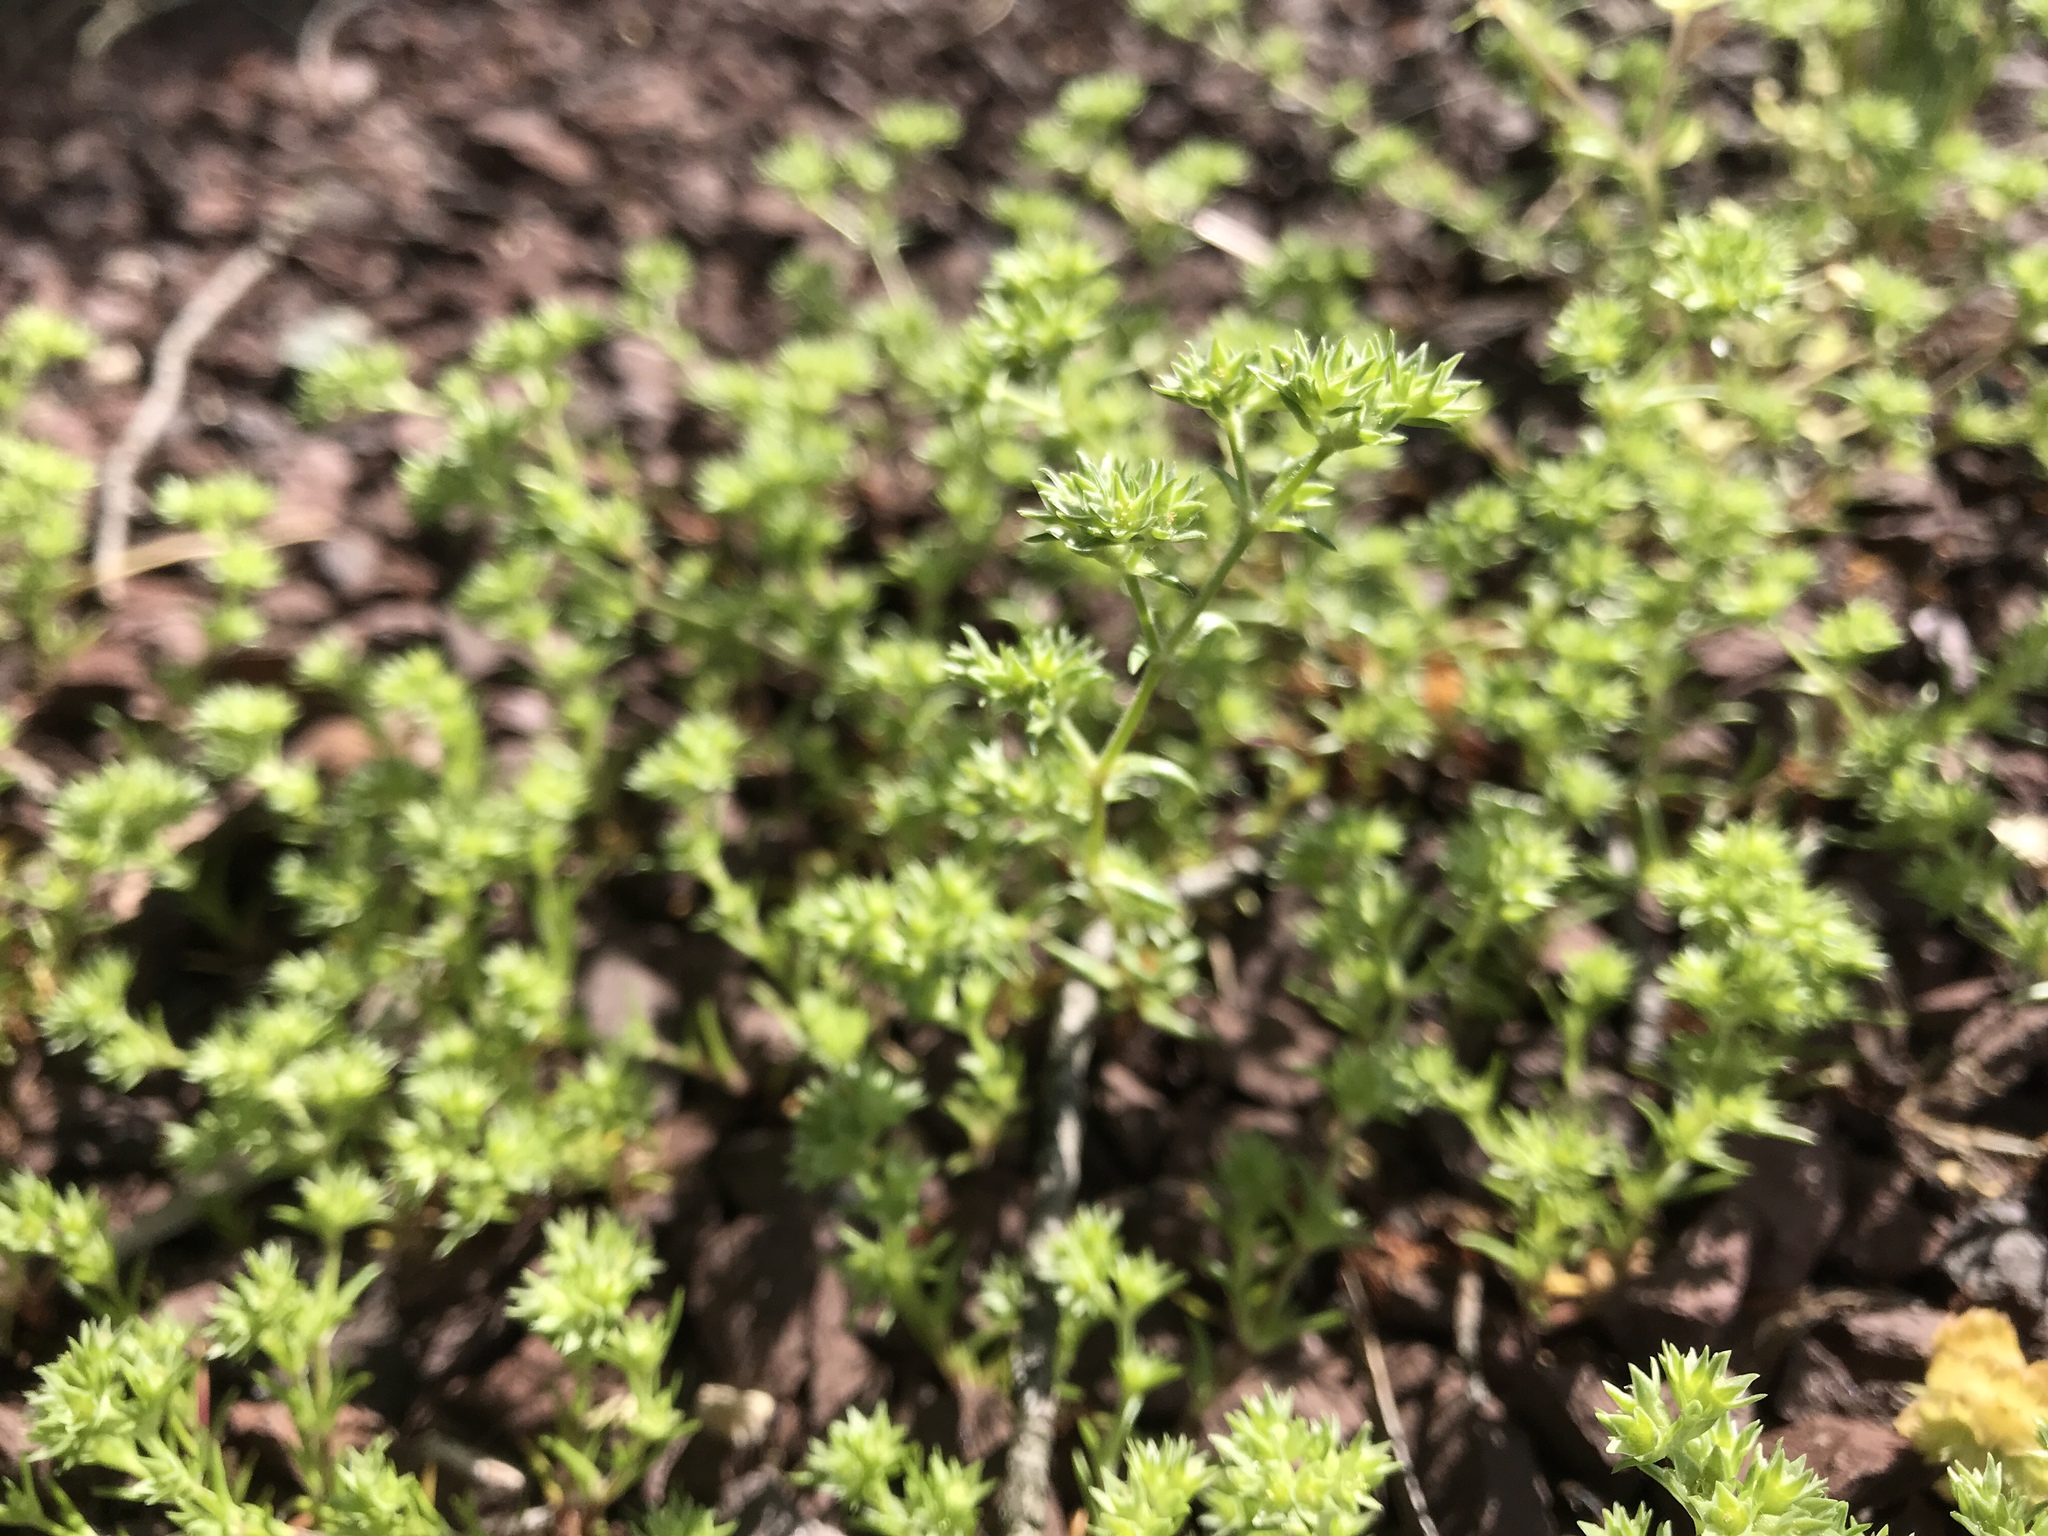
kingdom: Plantae
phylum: Tracheophyta
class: Magnoliopsida
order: Caryophyllales
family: Caryophyllaceae
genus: Scleranthus
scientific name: Scleranthus annuus
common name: Annual knawel
